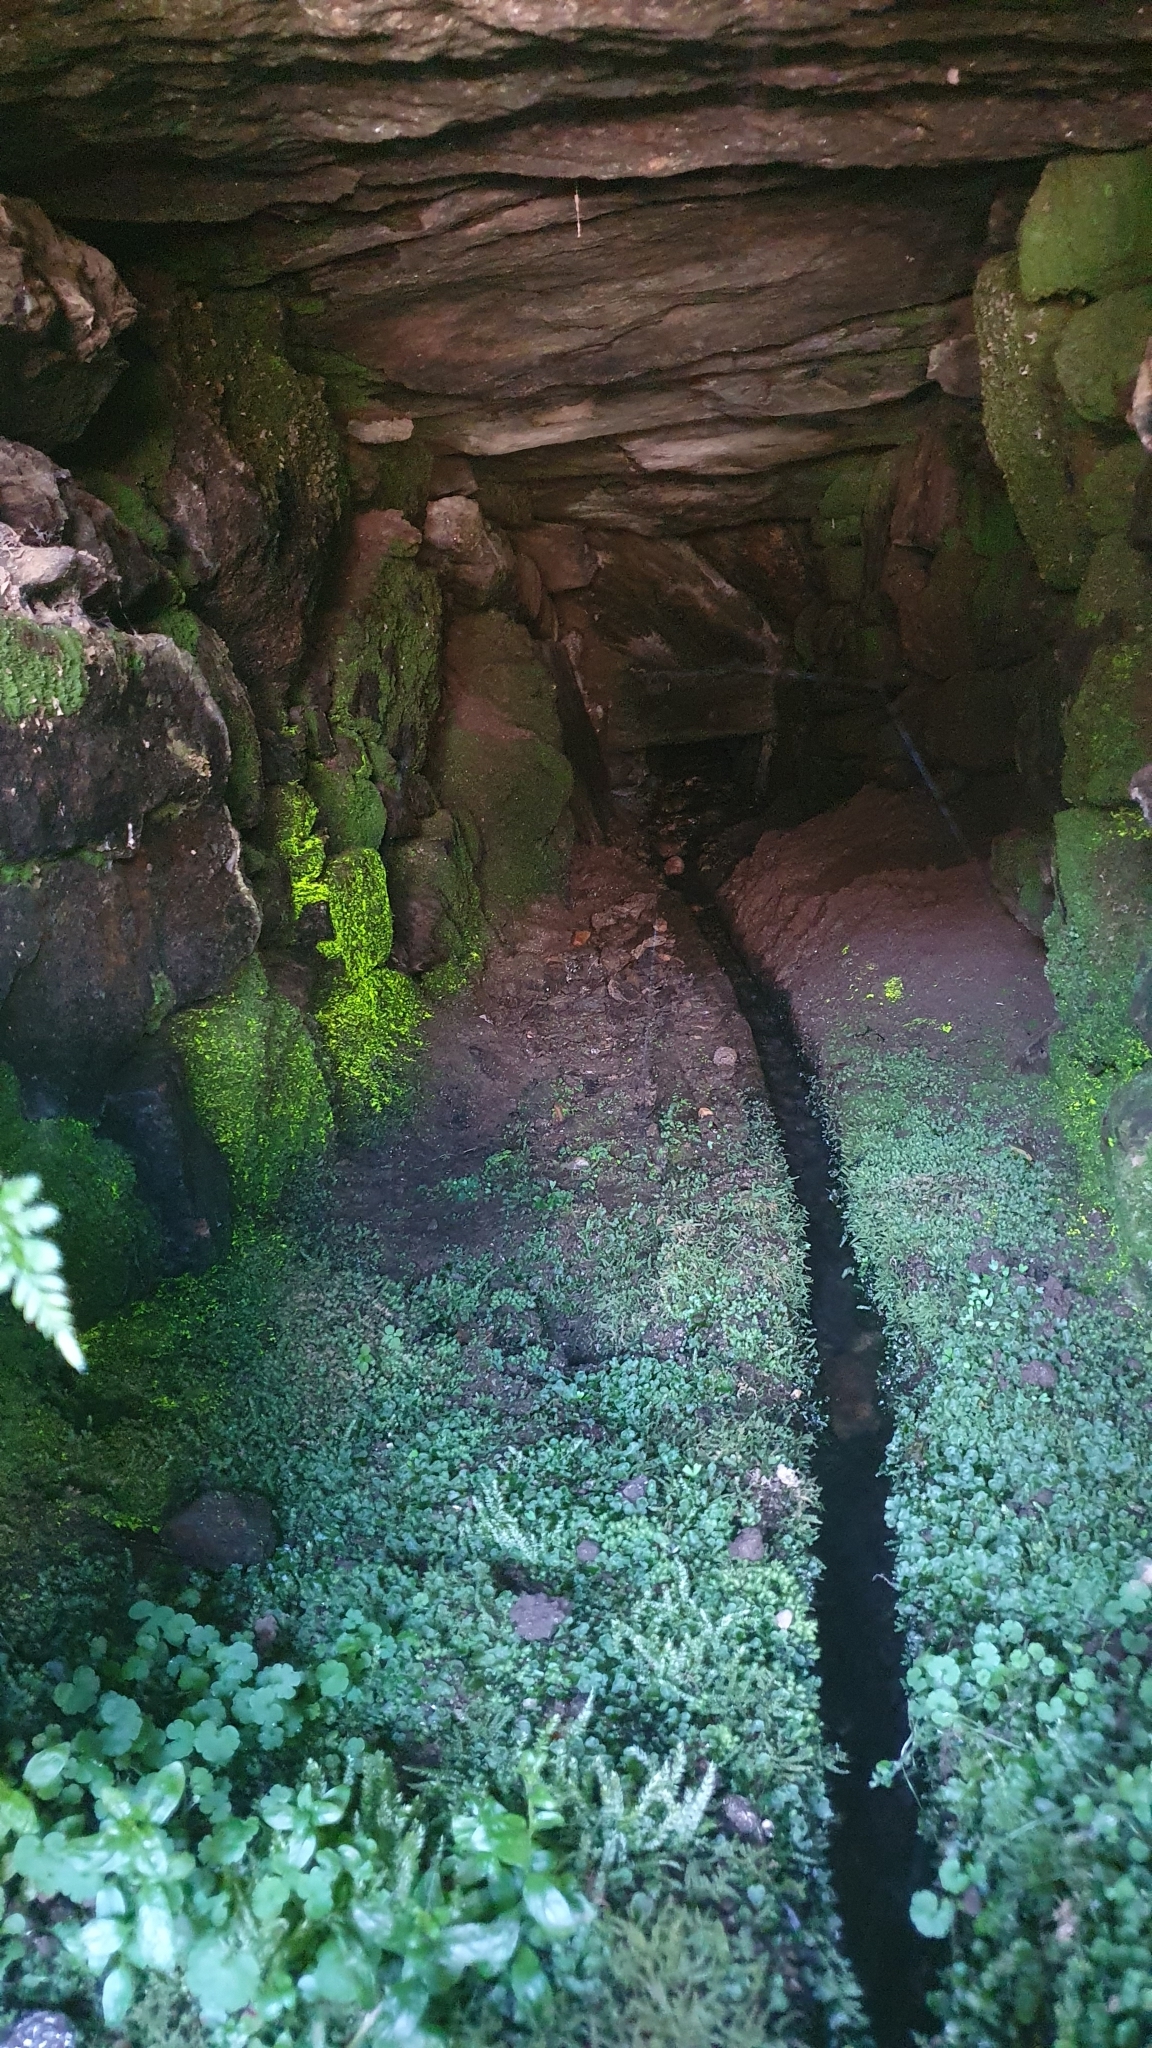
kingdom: Plantae
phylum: Bryophyta
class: Bryopsida
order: Dicranales
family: Schistostegaceae
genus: Schistostega
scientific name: Schistostega pennata
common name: Luminous moss
